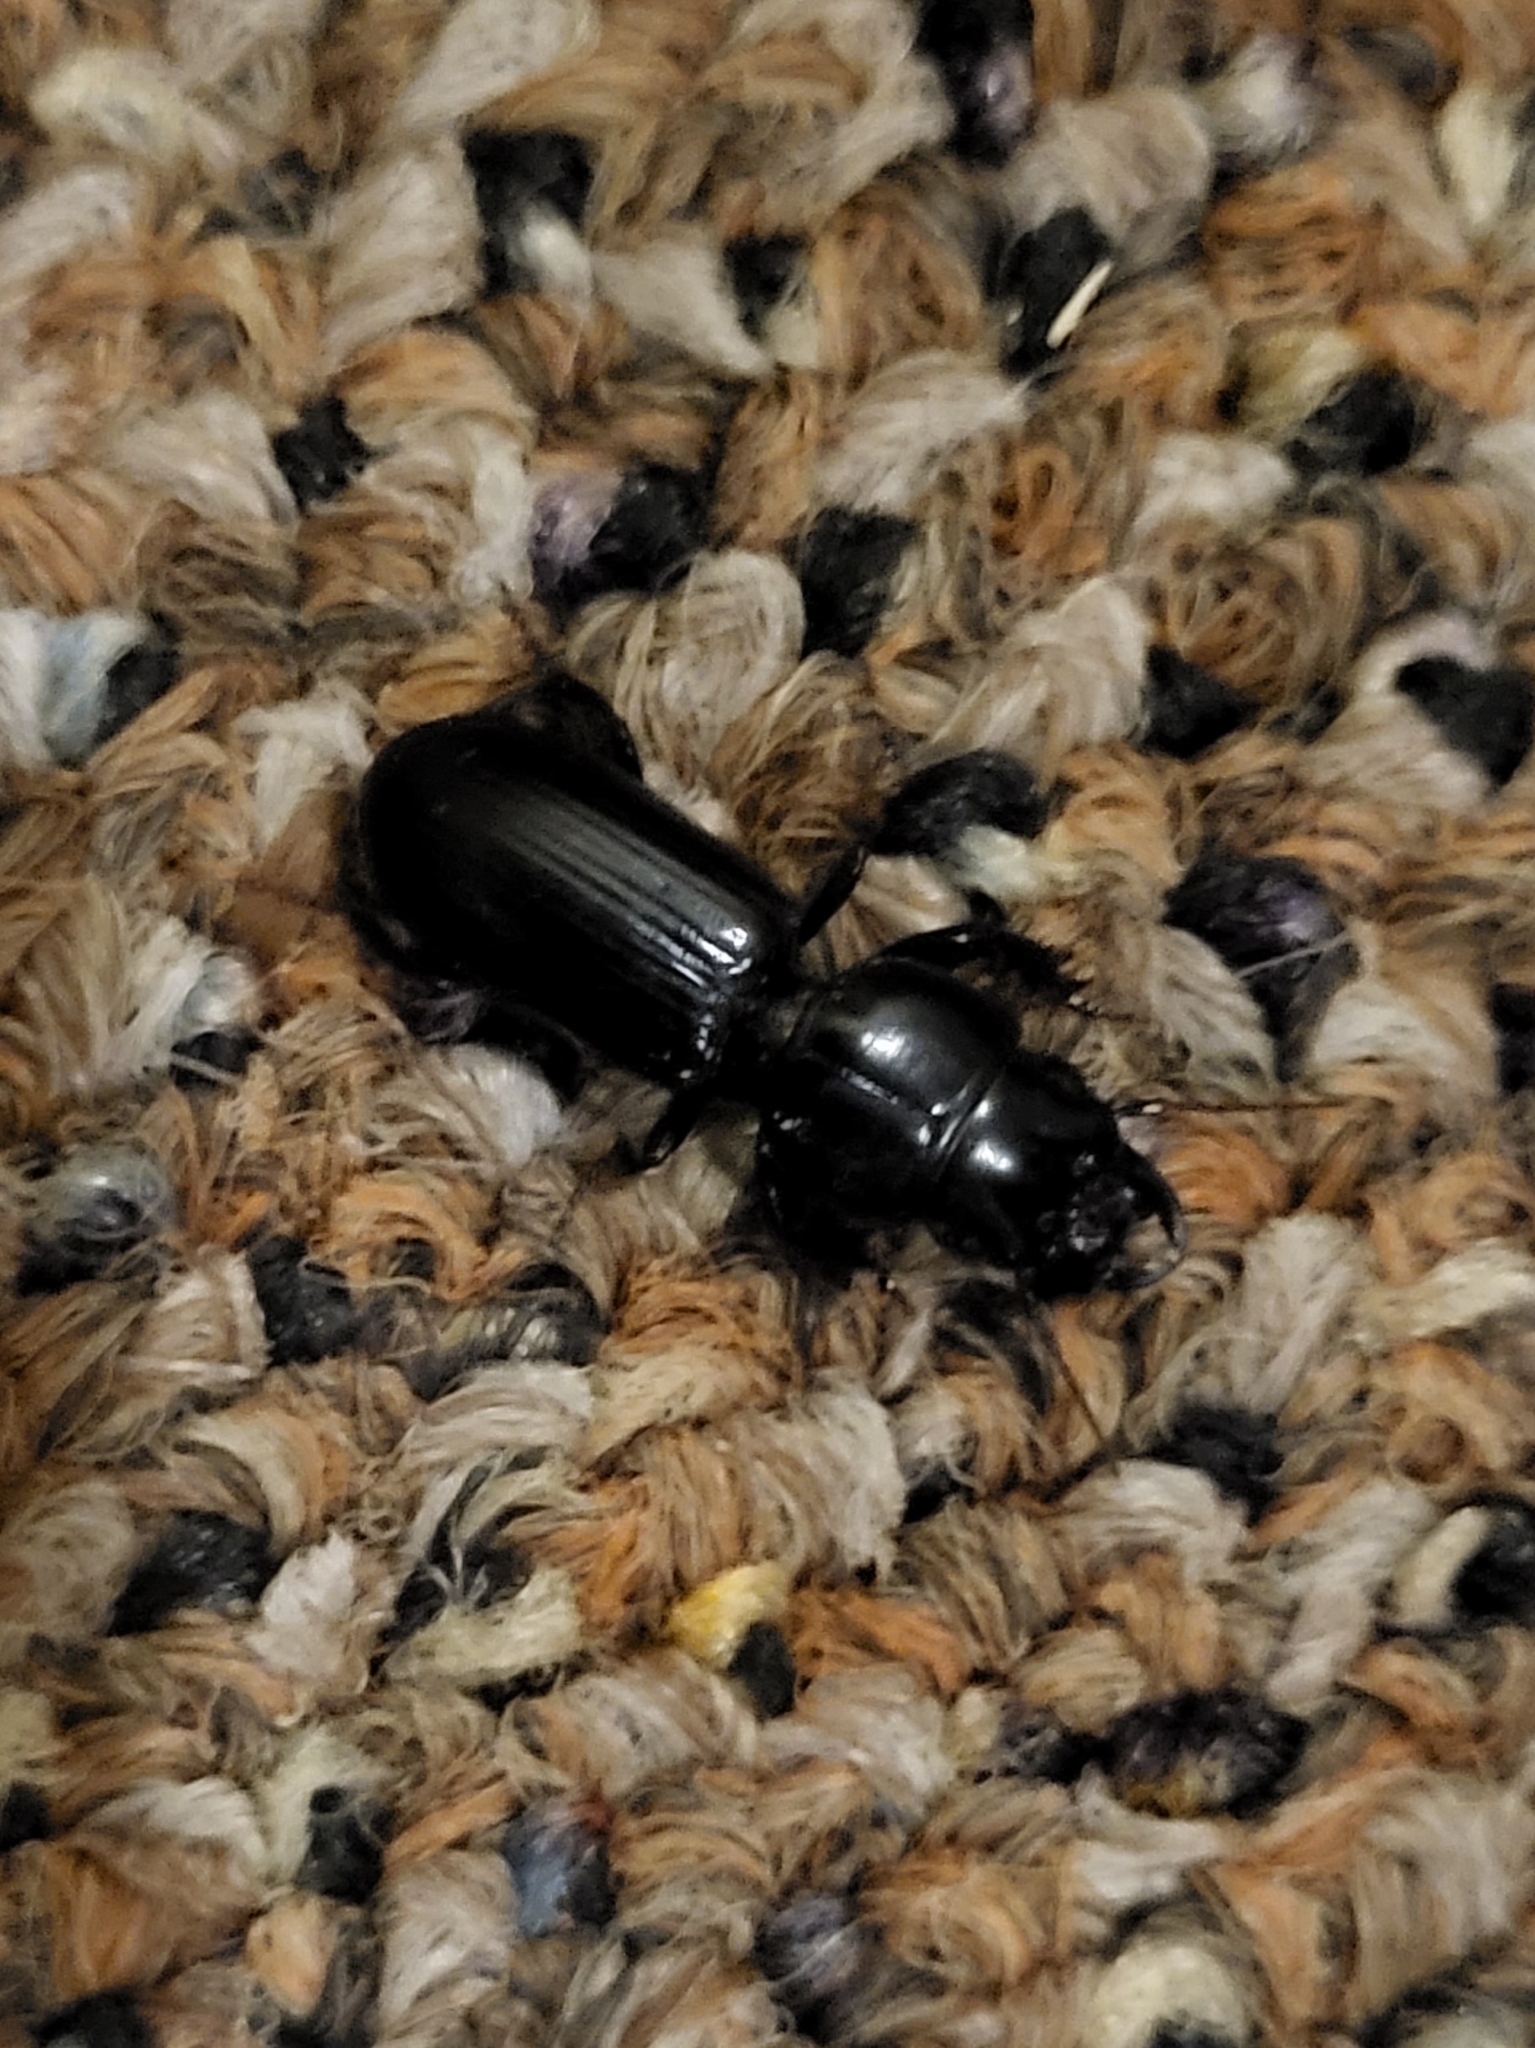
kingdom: Animalia
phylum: Arthropoda
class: Insecta
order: Coleoptera
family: Carabidae
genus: Scarites
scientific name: Scarites subterraneus
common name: Big-headed ground beetle
